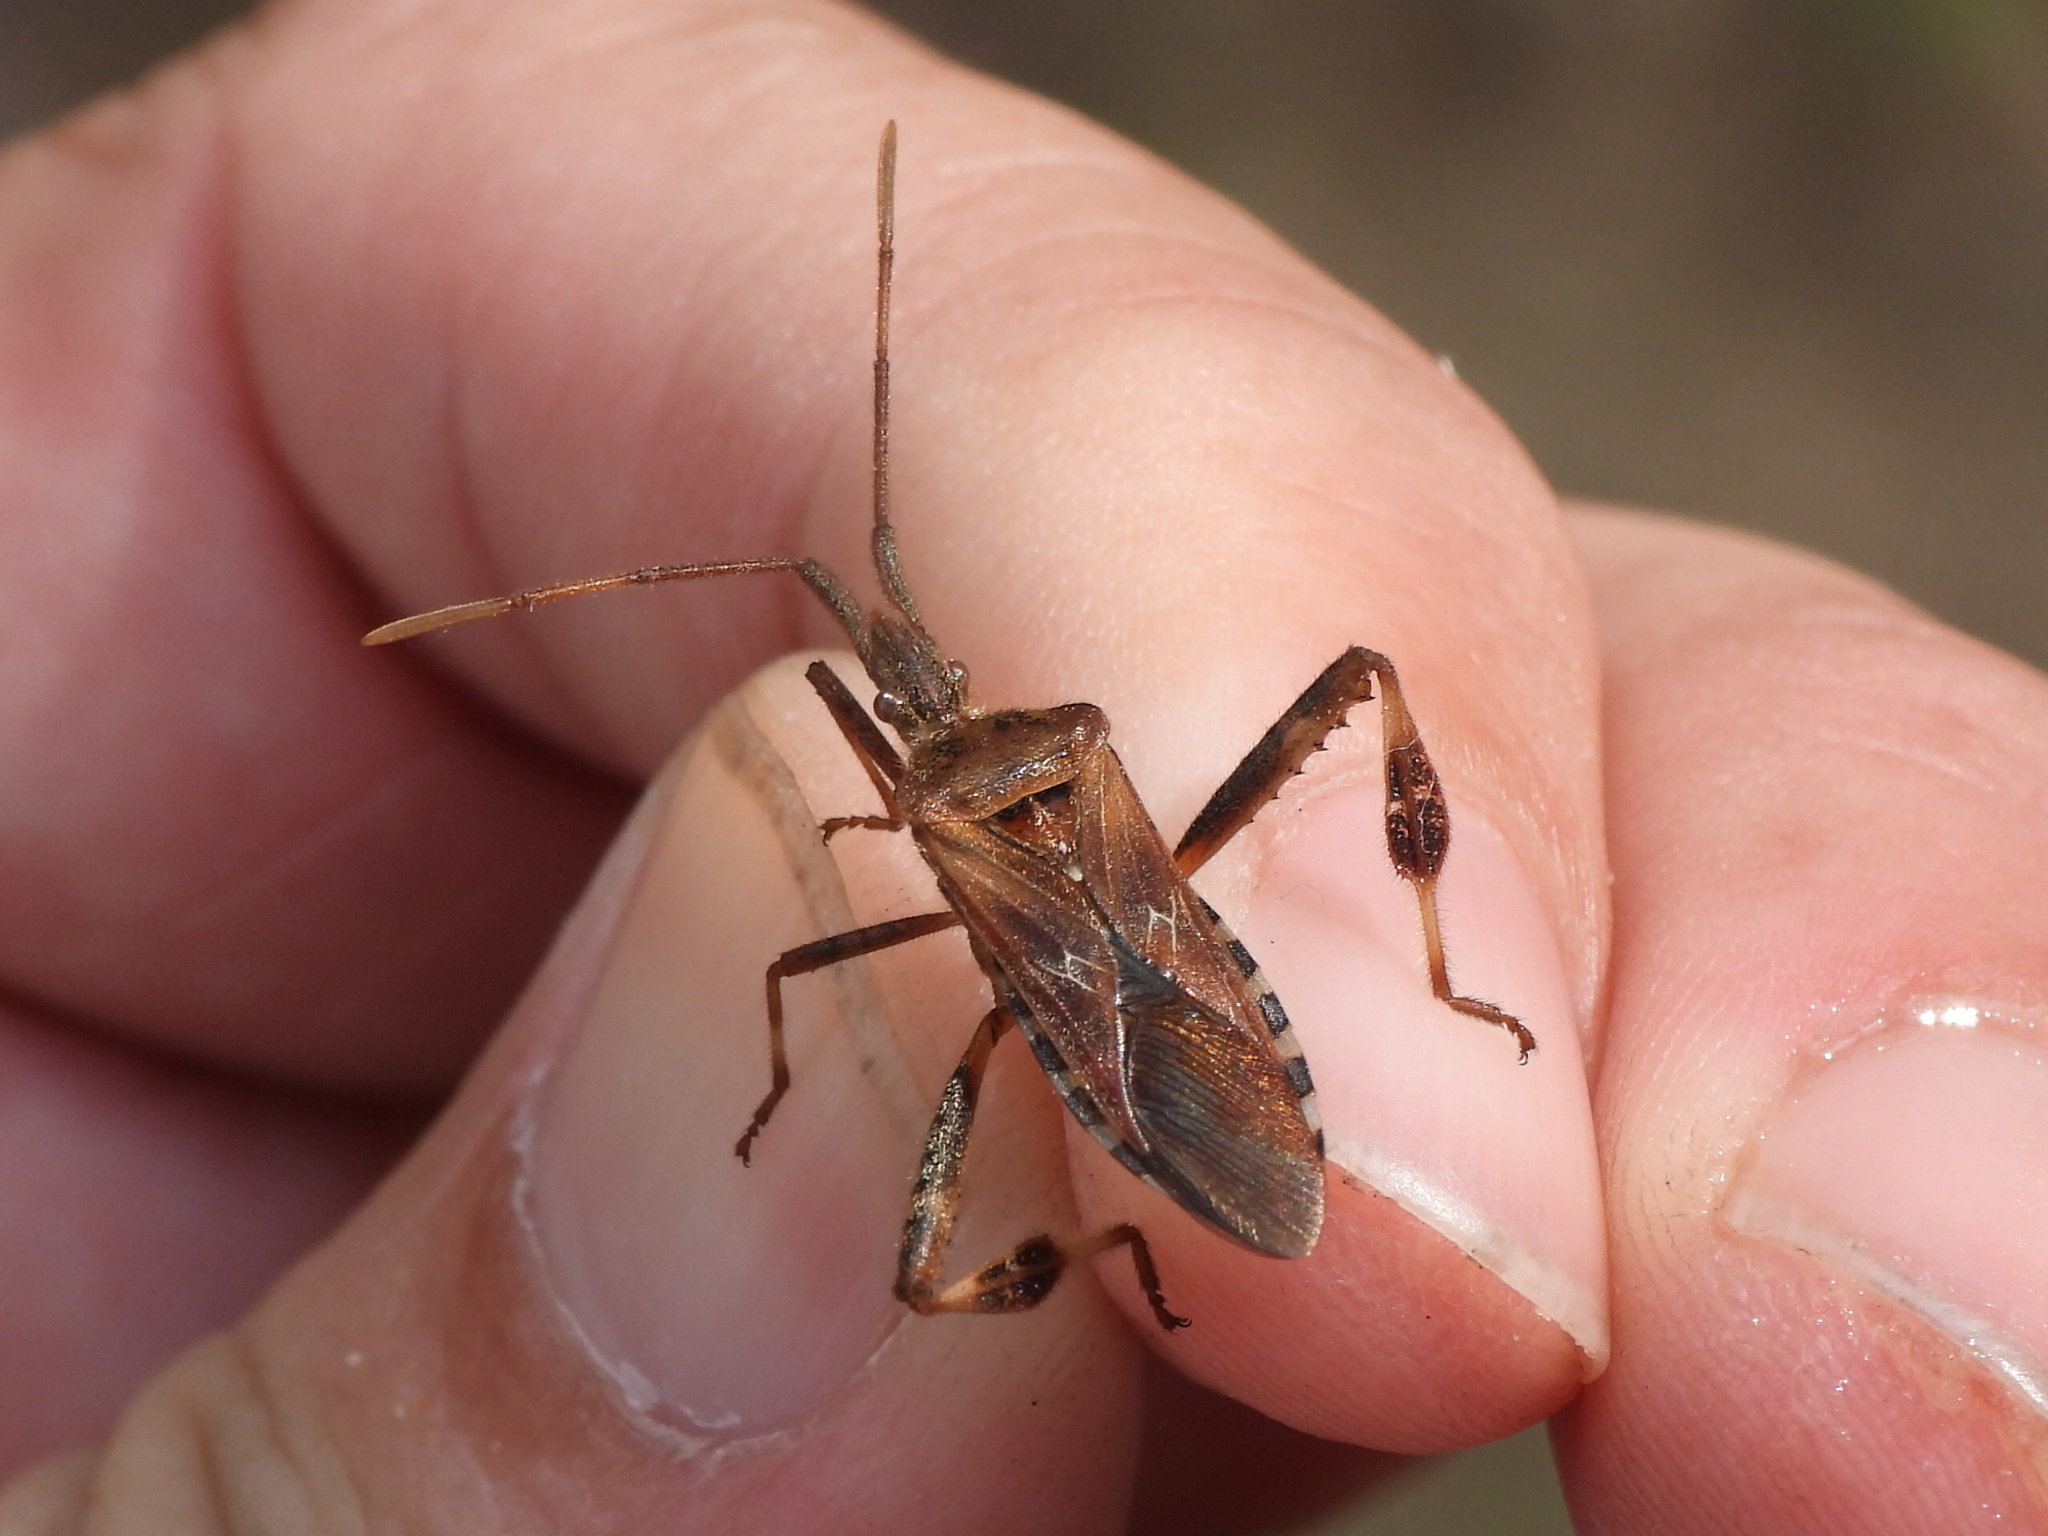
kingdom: Animalia
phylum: Arthropoda
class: Insecta
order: Hemiptera
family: Coreidae
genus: Leptoglossus
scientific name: Leptoglossus occidentalis
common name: Western conifer-seed bug
